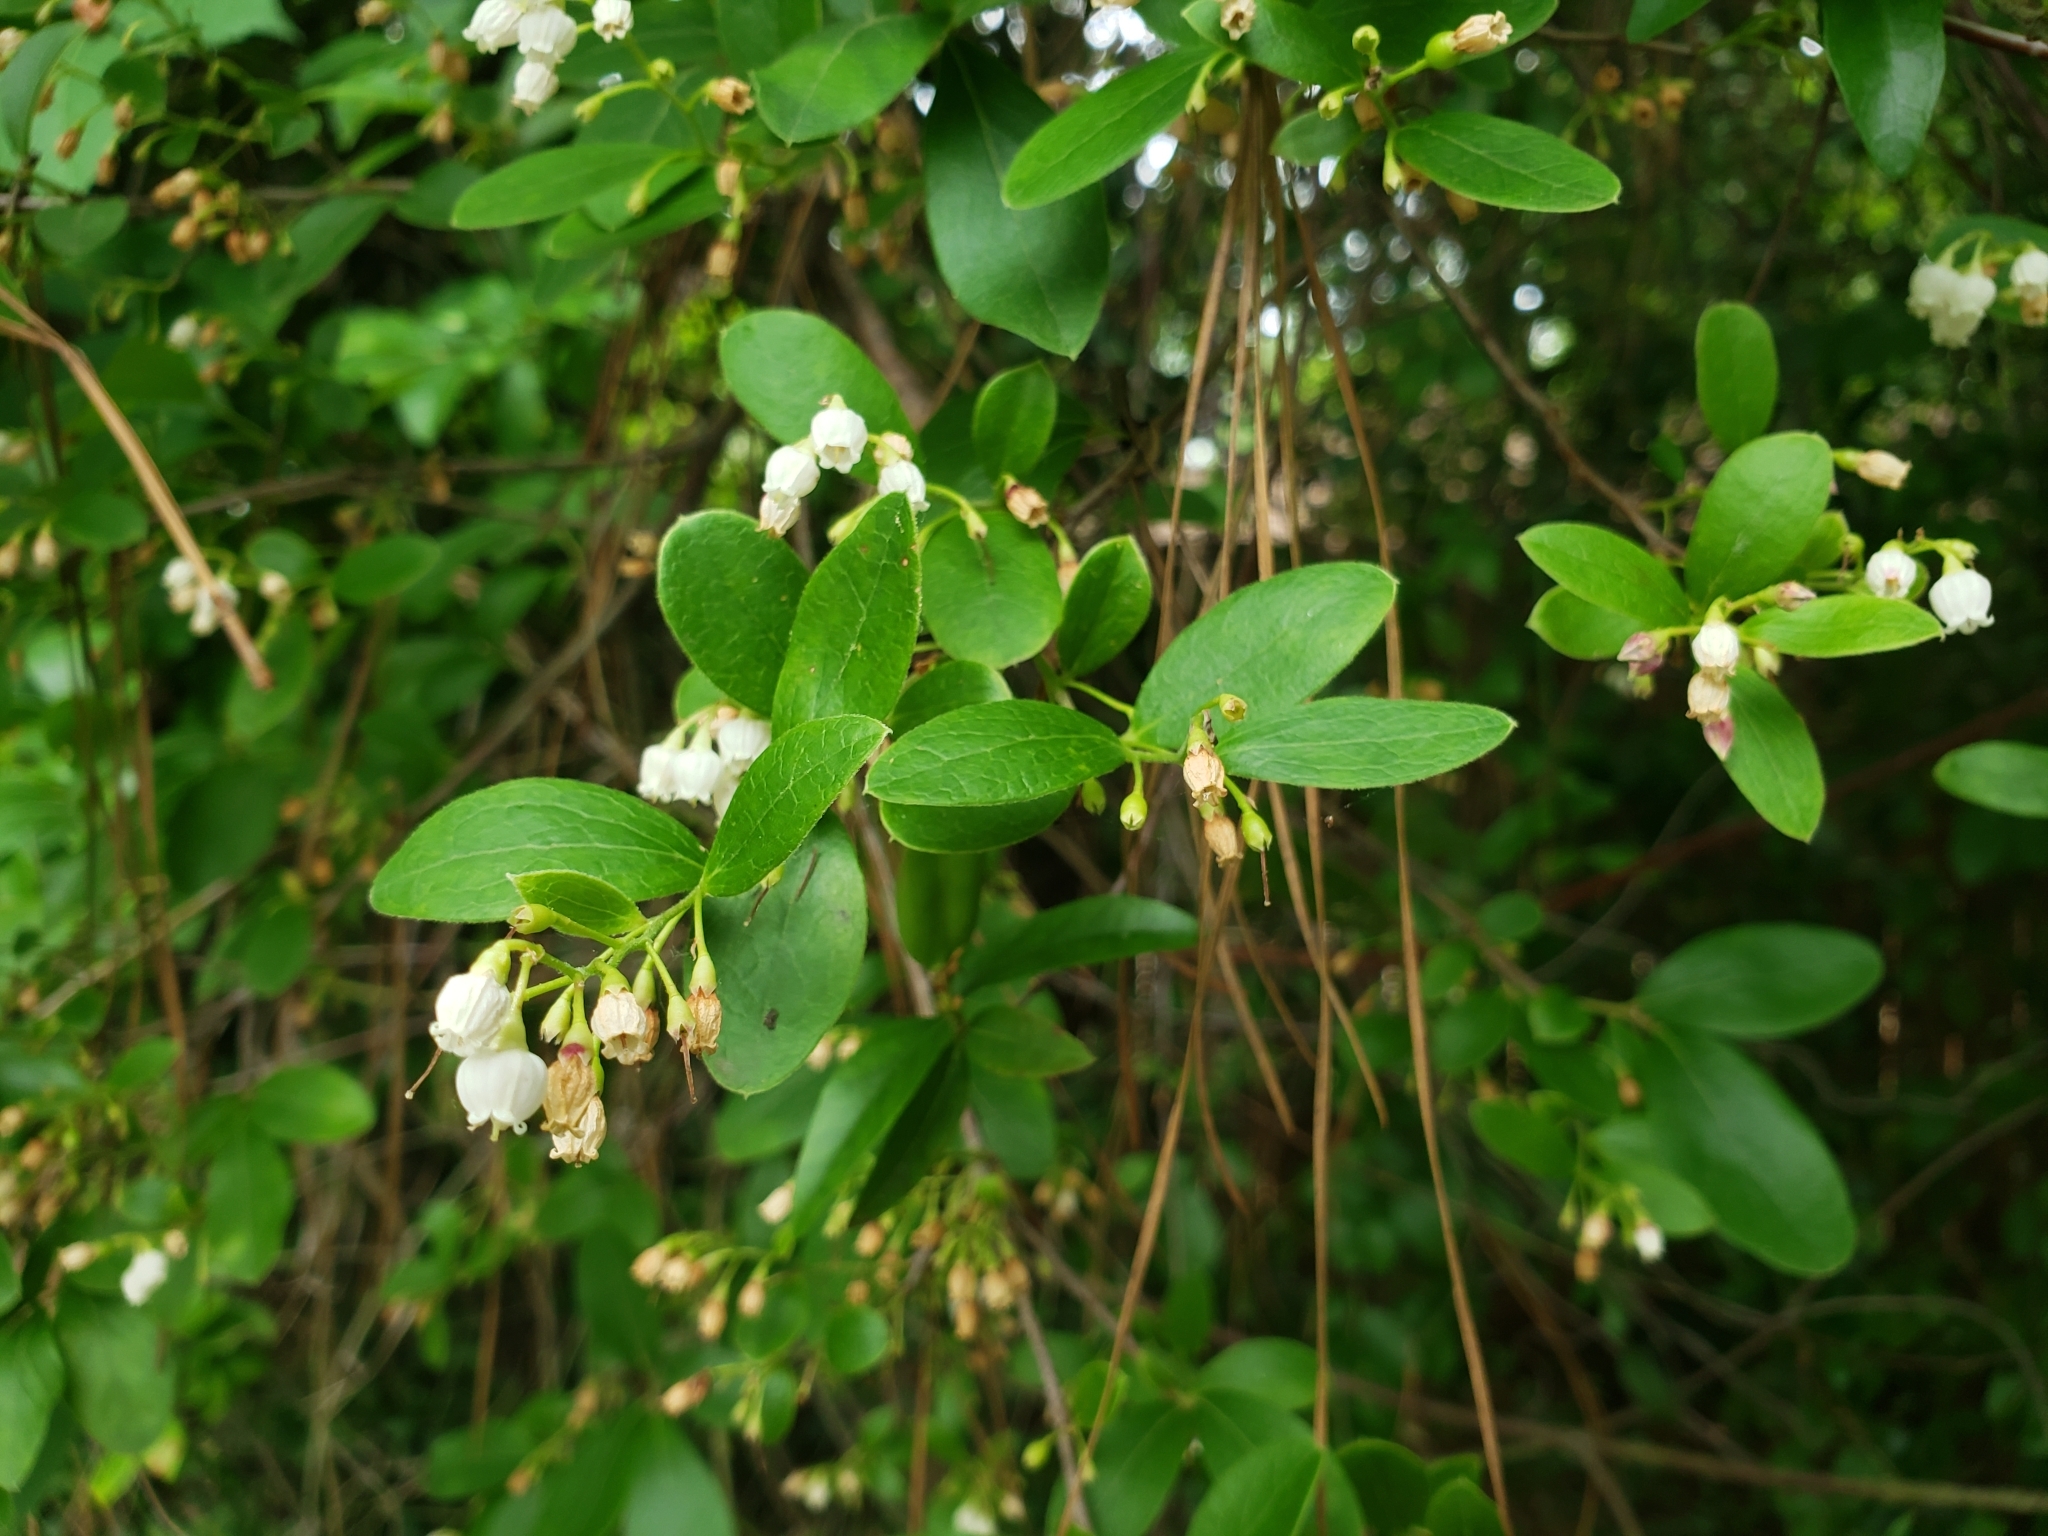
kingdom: Plantae
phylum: Tracheophyta
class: Magnoliopsida
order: Ericales
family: Ericaceae
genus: Vaccinium
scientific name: Vaccinium arboreum
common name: Farkleberry
